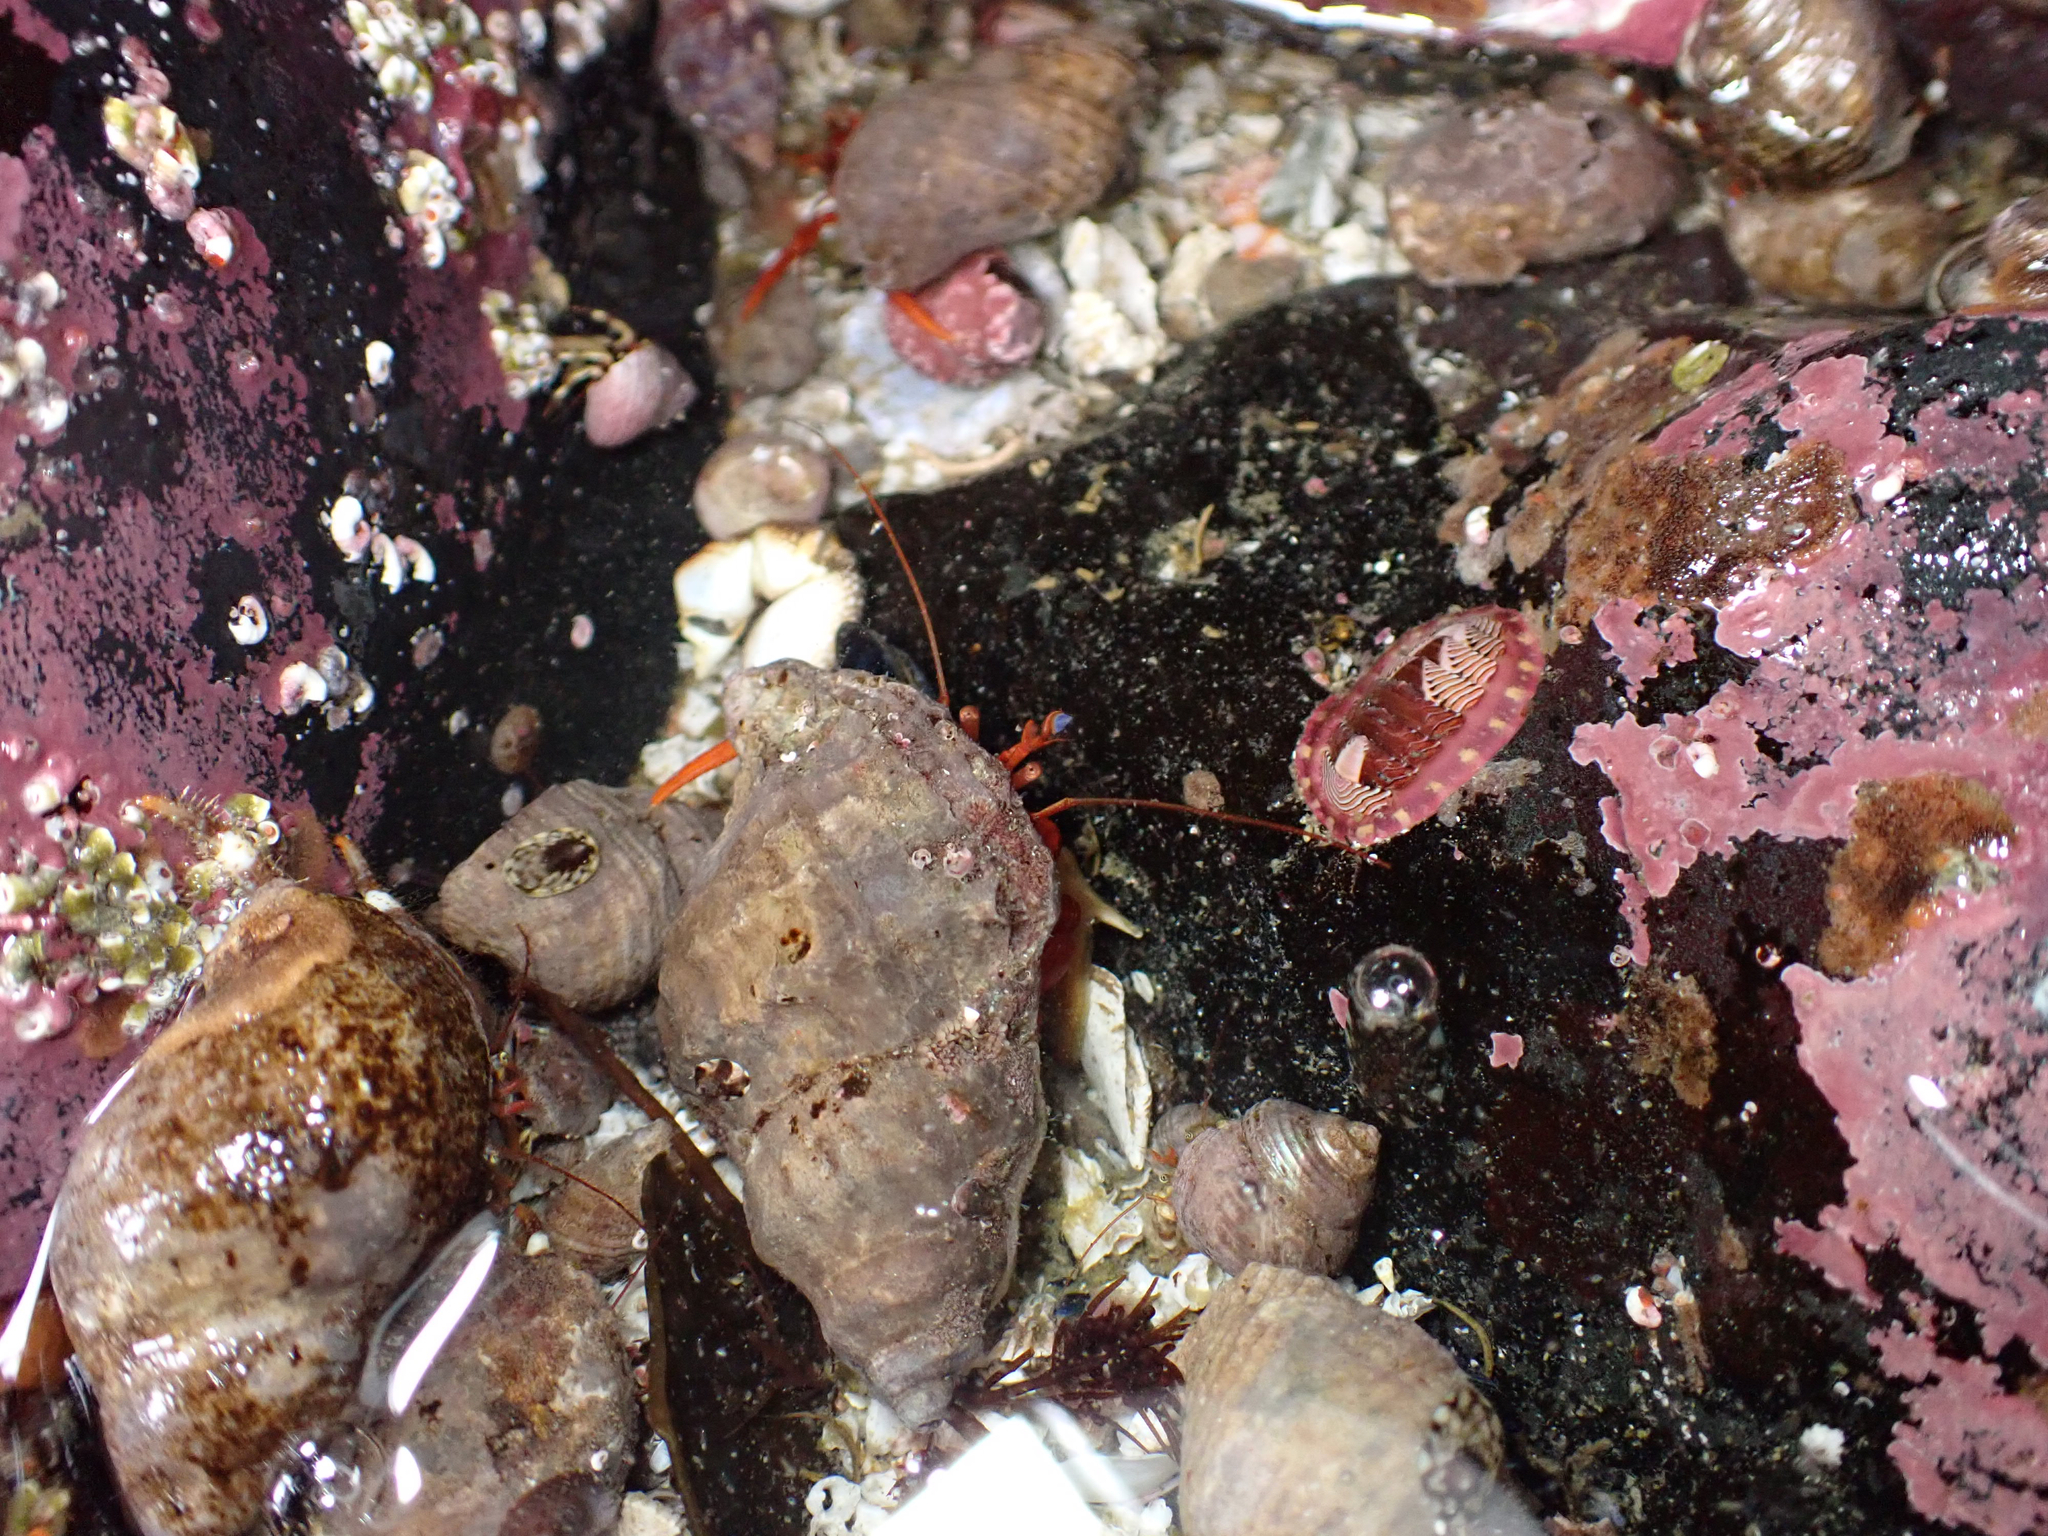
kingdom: Animalia
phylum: Arthropoda
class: Malacostraca
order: Decapoda
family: Paguridae
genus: Elassochirus
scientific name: Elassochirus gilli
